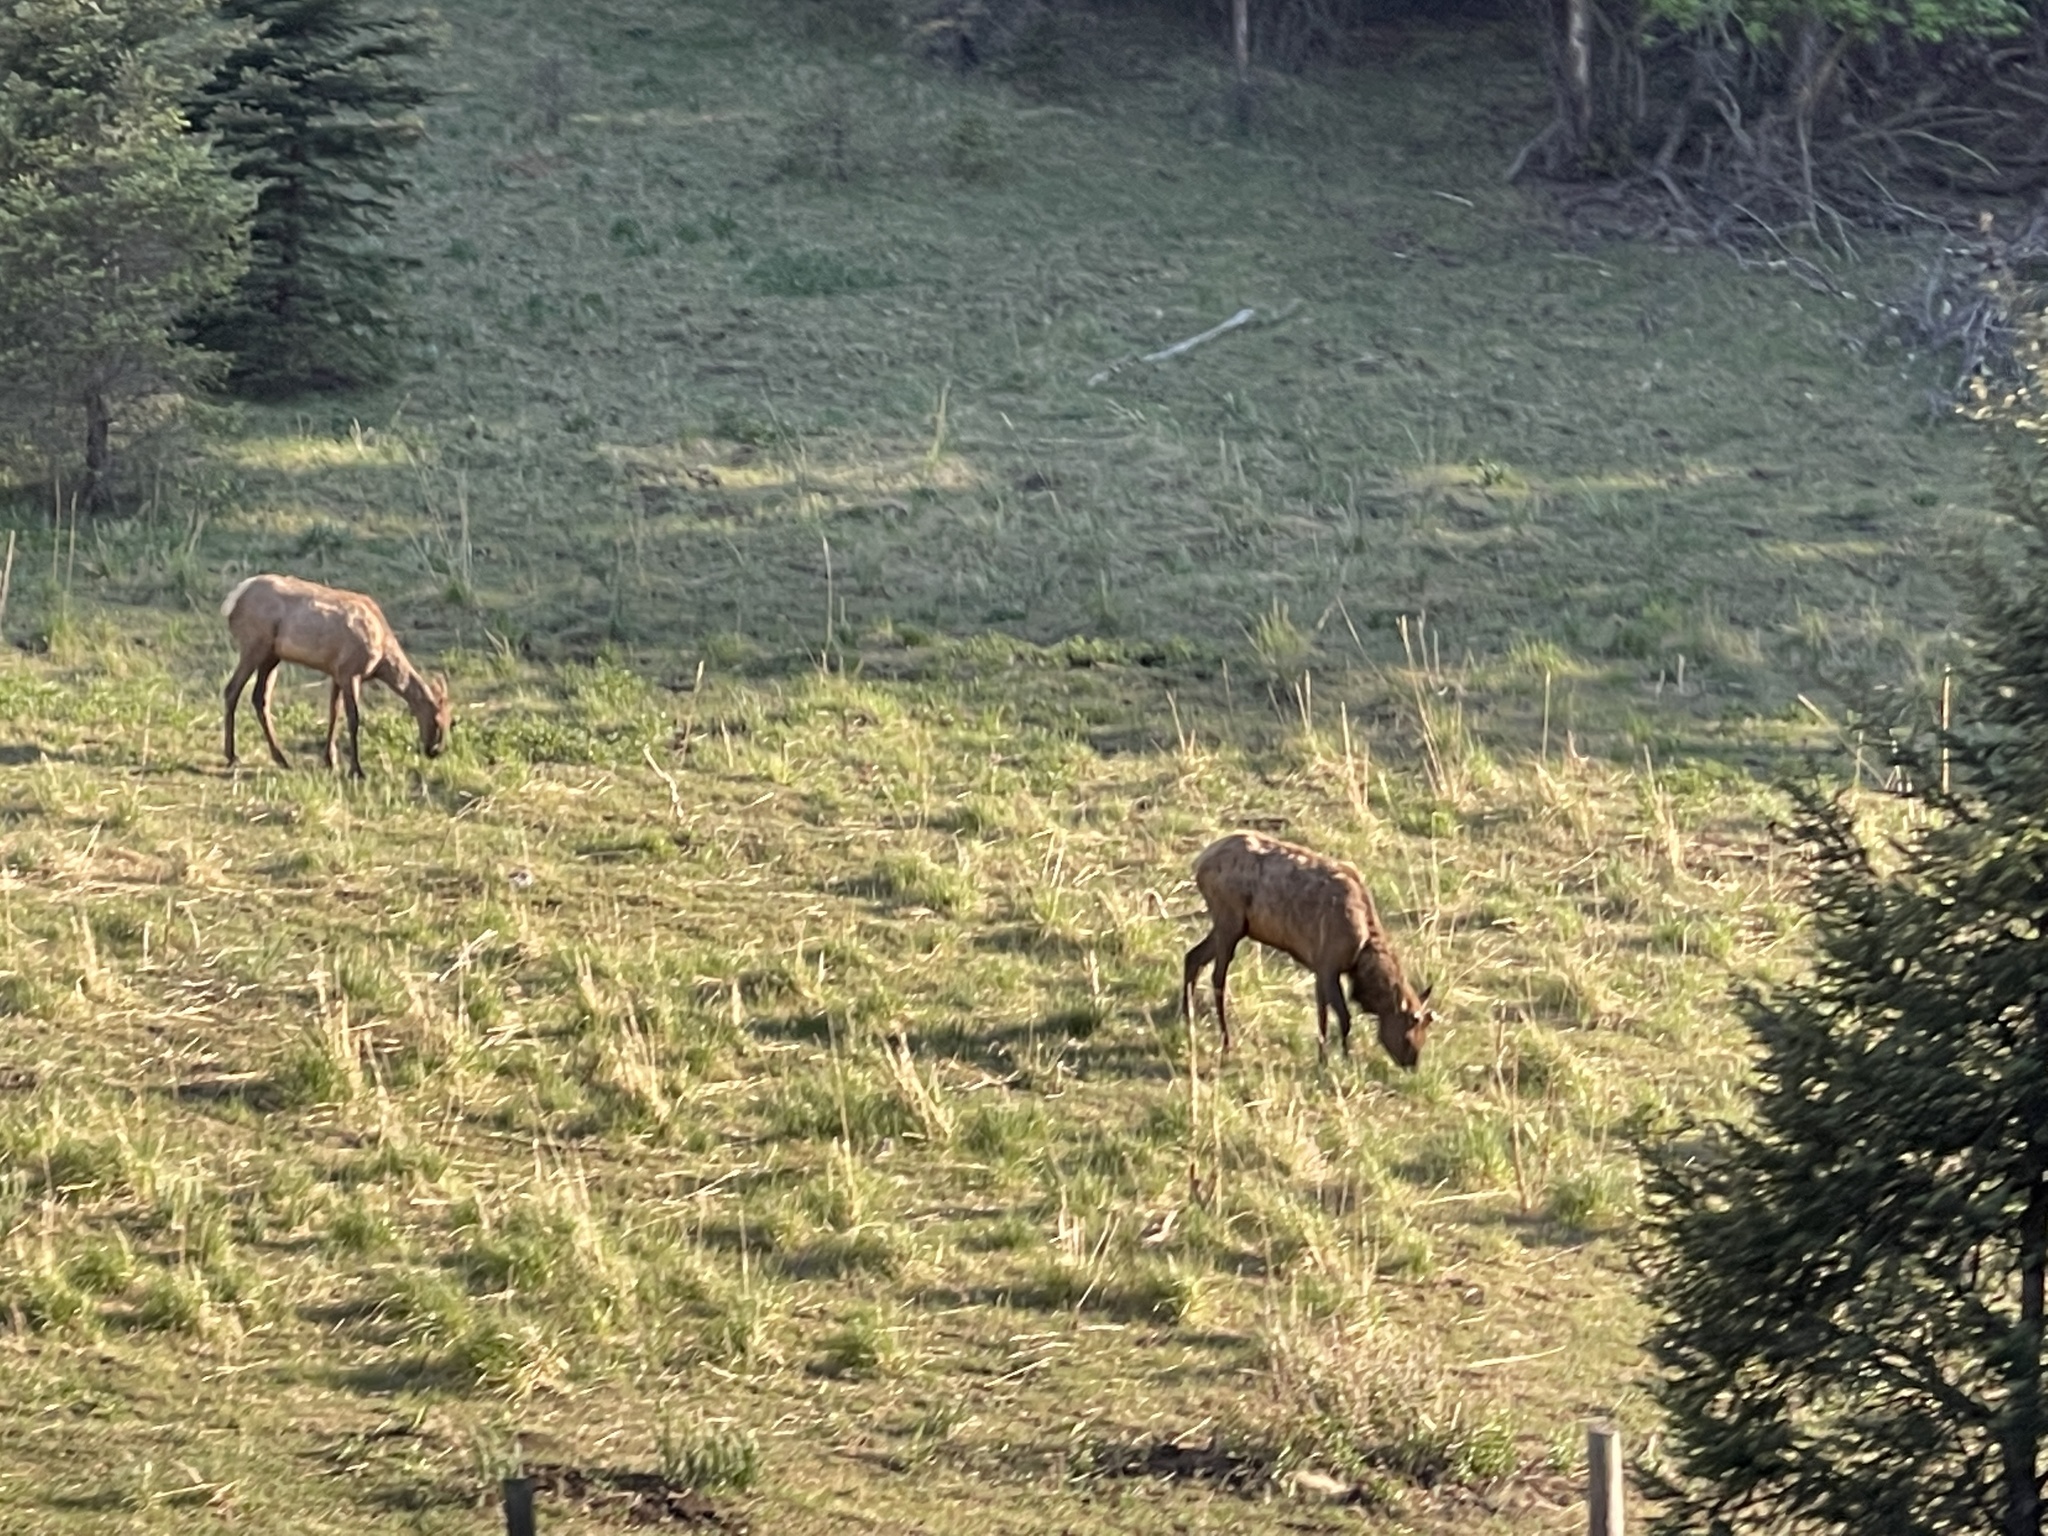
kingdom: Animalia
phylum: Chordata
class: Mammalia
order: Artiodactyla
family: Cervidae
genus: Cervus
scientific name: Cervus elaphus
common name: Red deer
